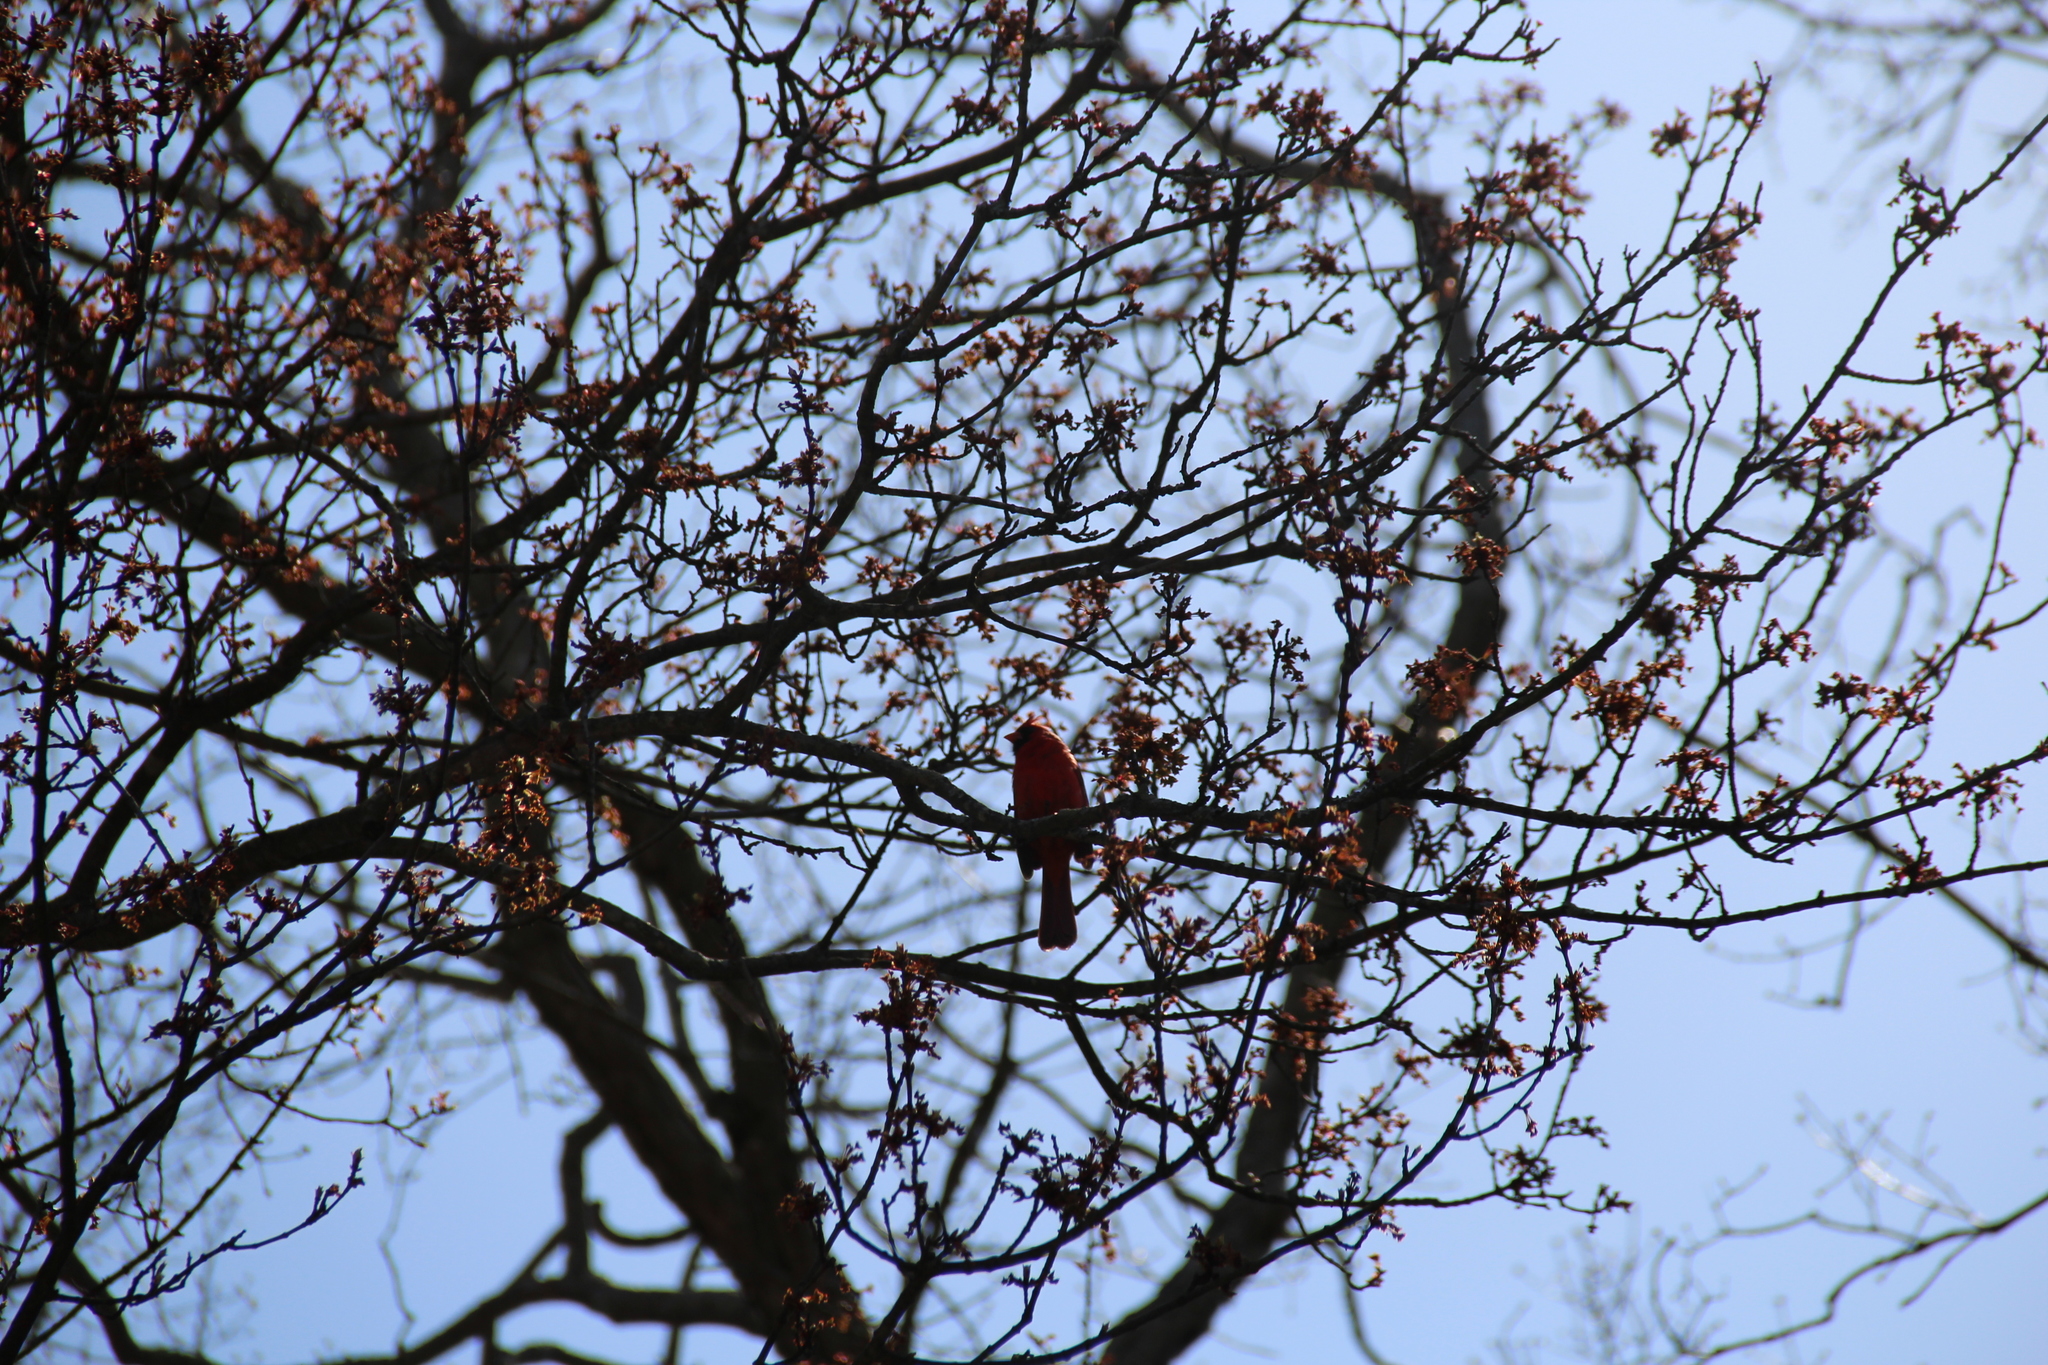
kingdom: Animalia
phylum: Chordata
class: Aves
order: Passeriformes
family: Cardinalidae
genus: Cardinalis
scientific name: Cardinalis cardinalis
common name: Northern cardinal
